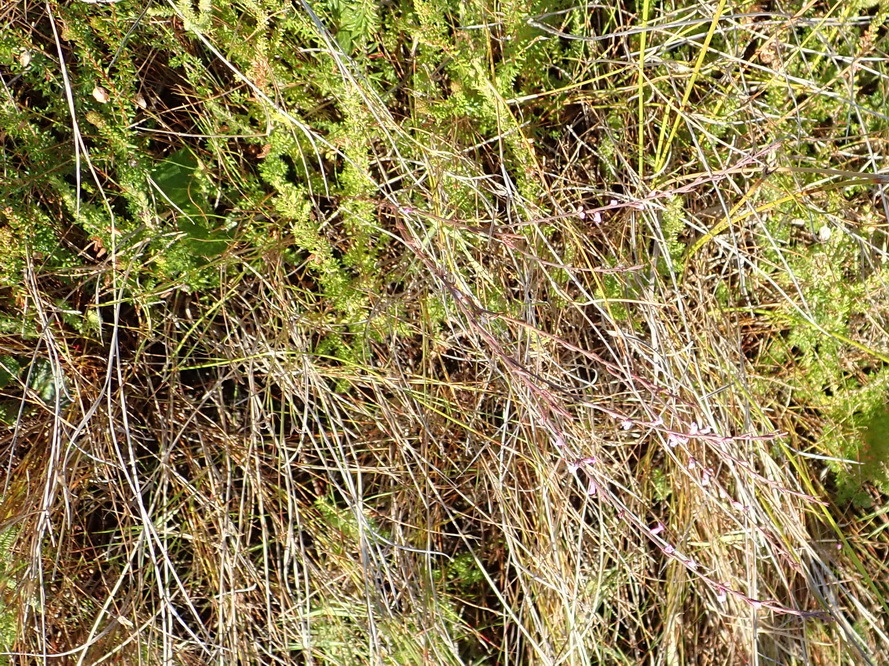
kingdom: Plantae
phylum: Tracheophyta
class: Magnoliopsida
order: Fabales
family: Polygalaceae
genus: Muraltia
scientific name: Muraltia leptorhiza
